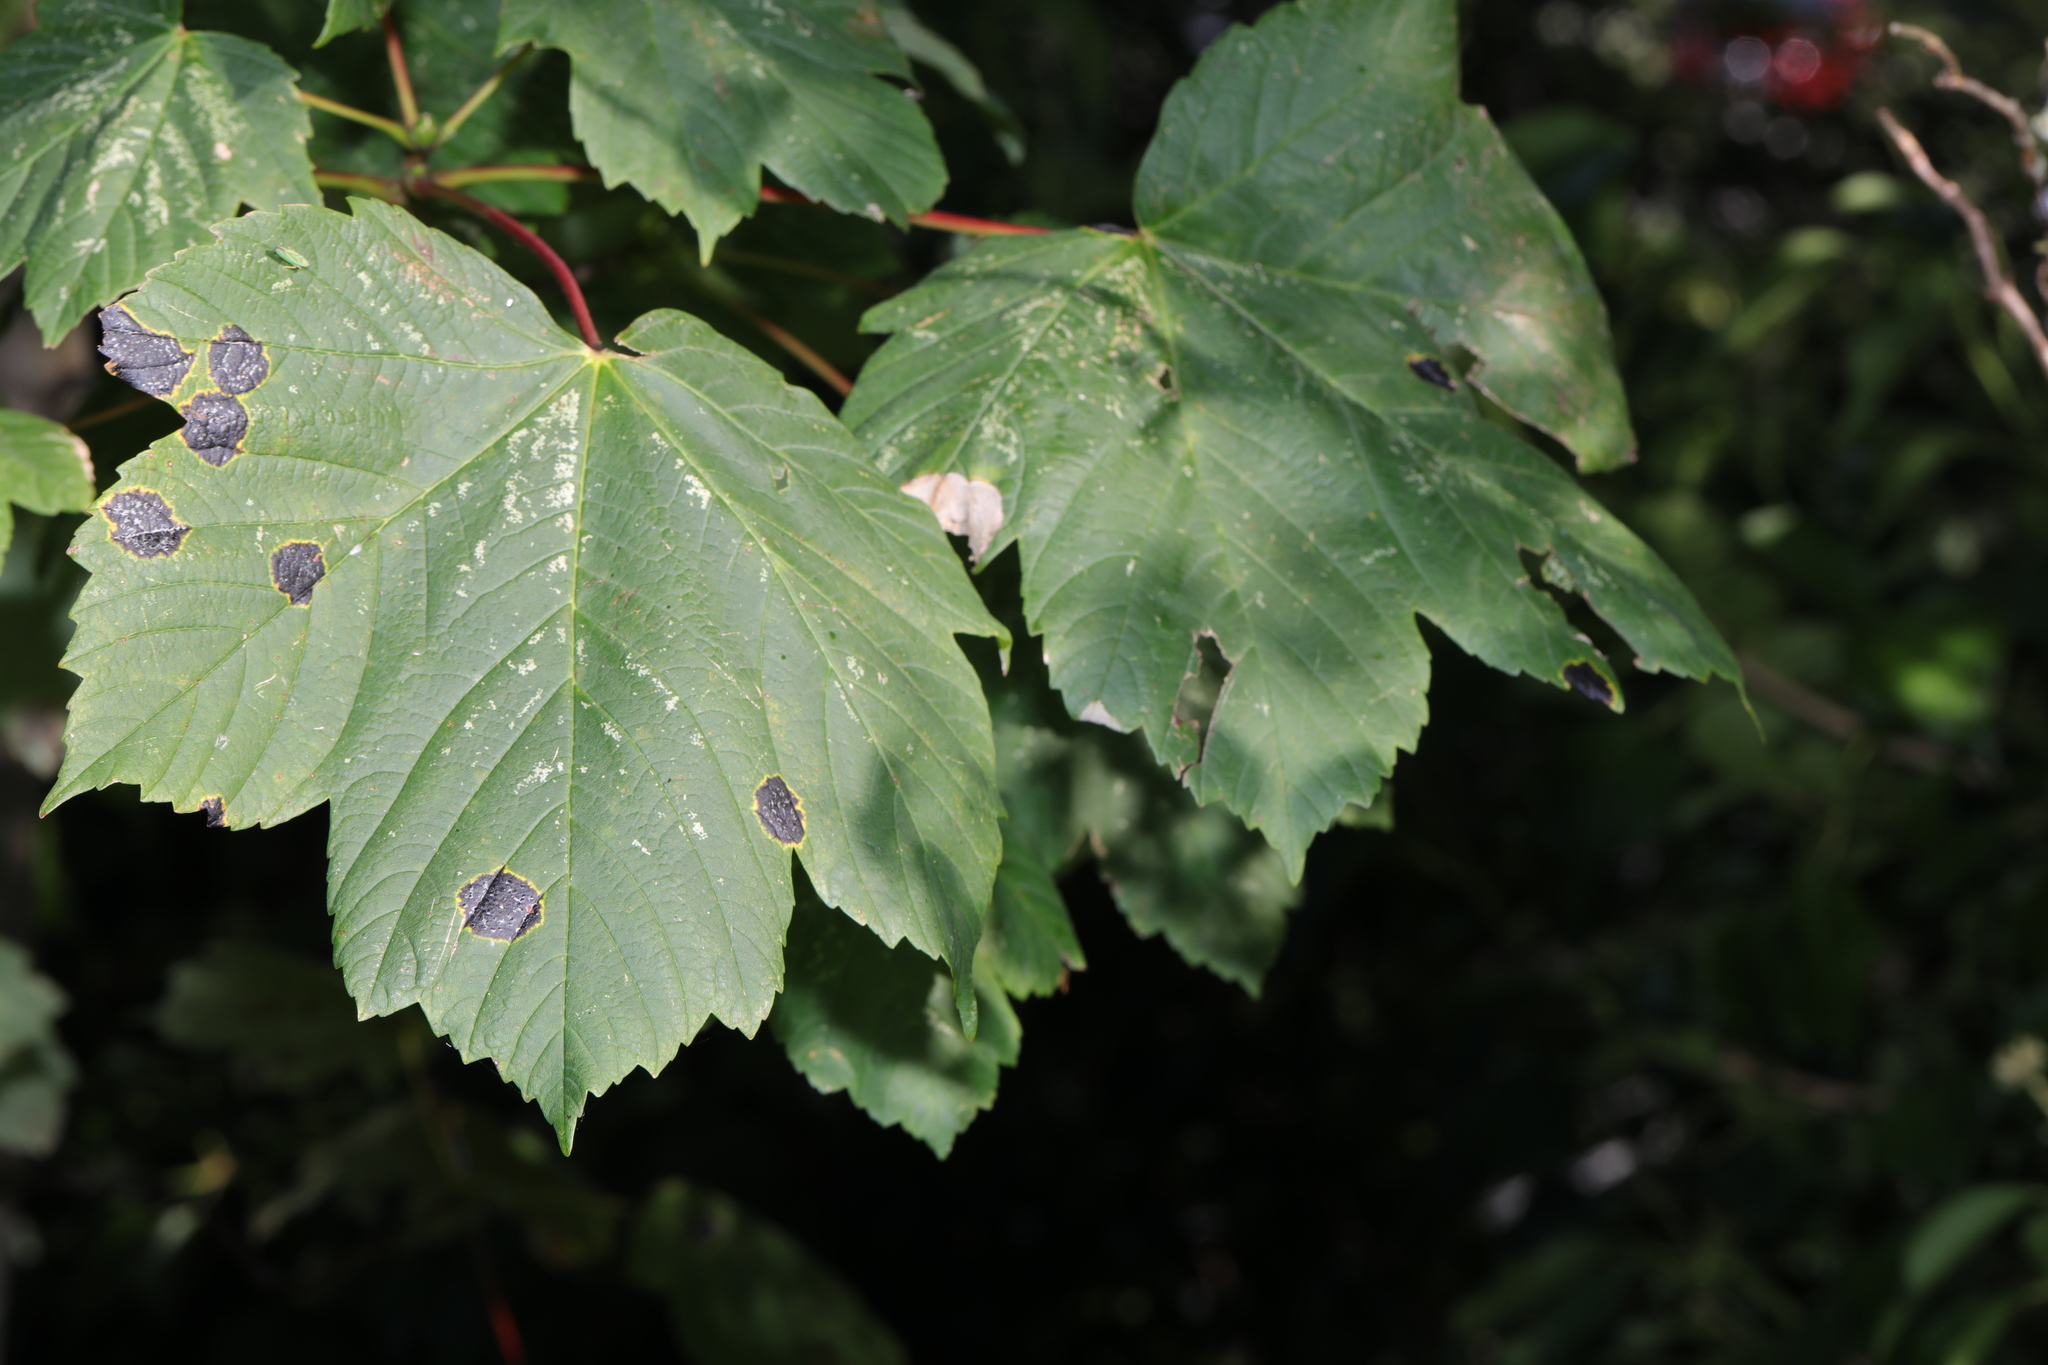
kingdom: Plantae
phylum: Tracheophyta
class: Magnoliopsida
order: Sapindales
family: Sapindaceae
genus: Acer
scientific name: Acer pseudoplatanus
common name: Sycamore
